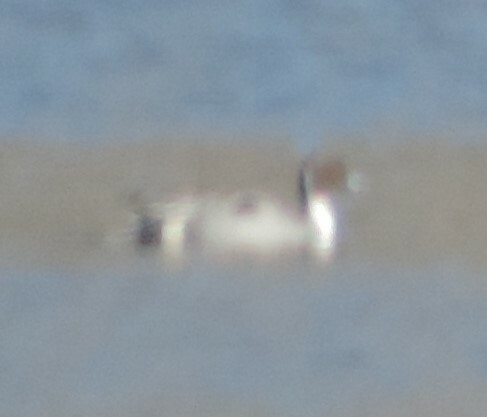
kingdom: Animalia
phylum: Chordata
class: Aves
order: Anseriformes
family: Anatidae
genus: Anas
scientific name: Anas acuta
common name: Northern pintail
